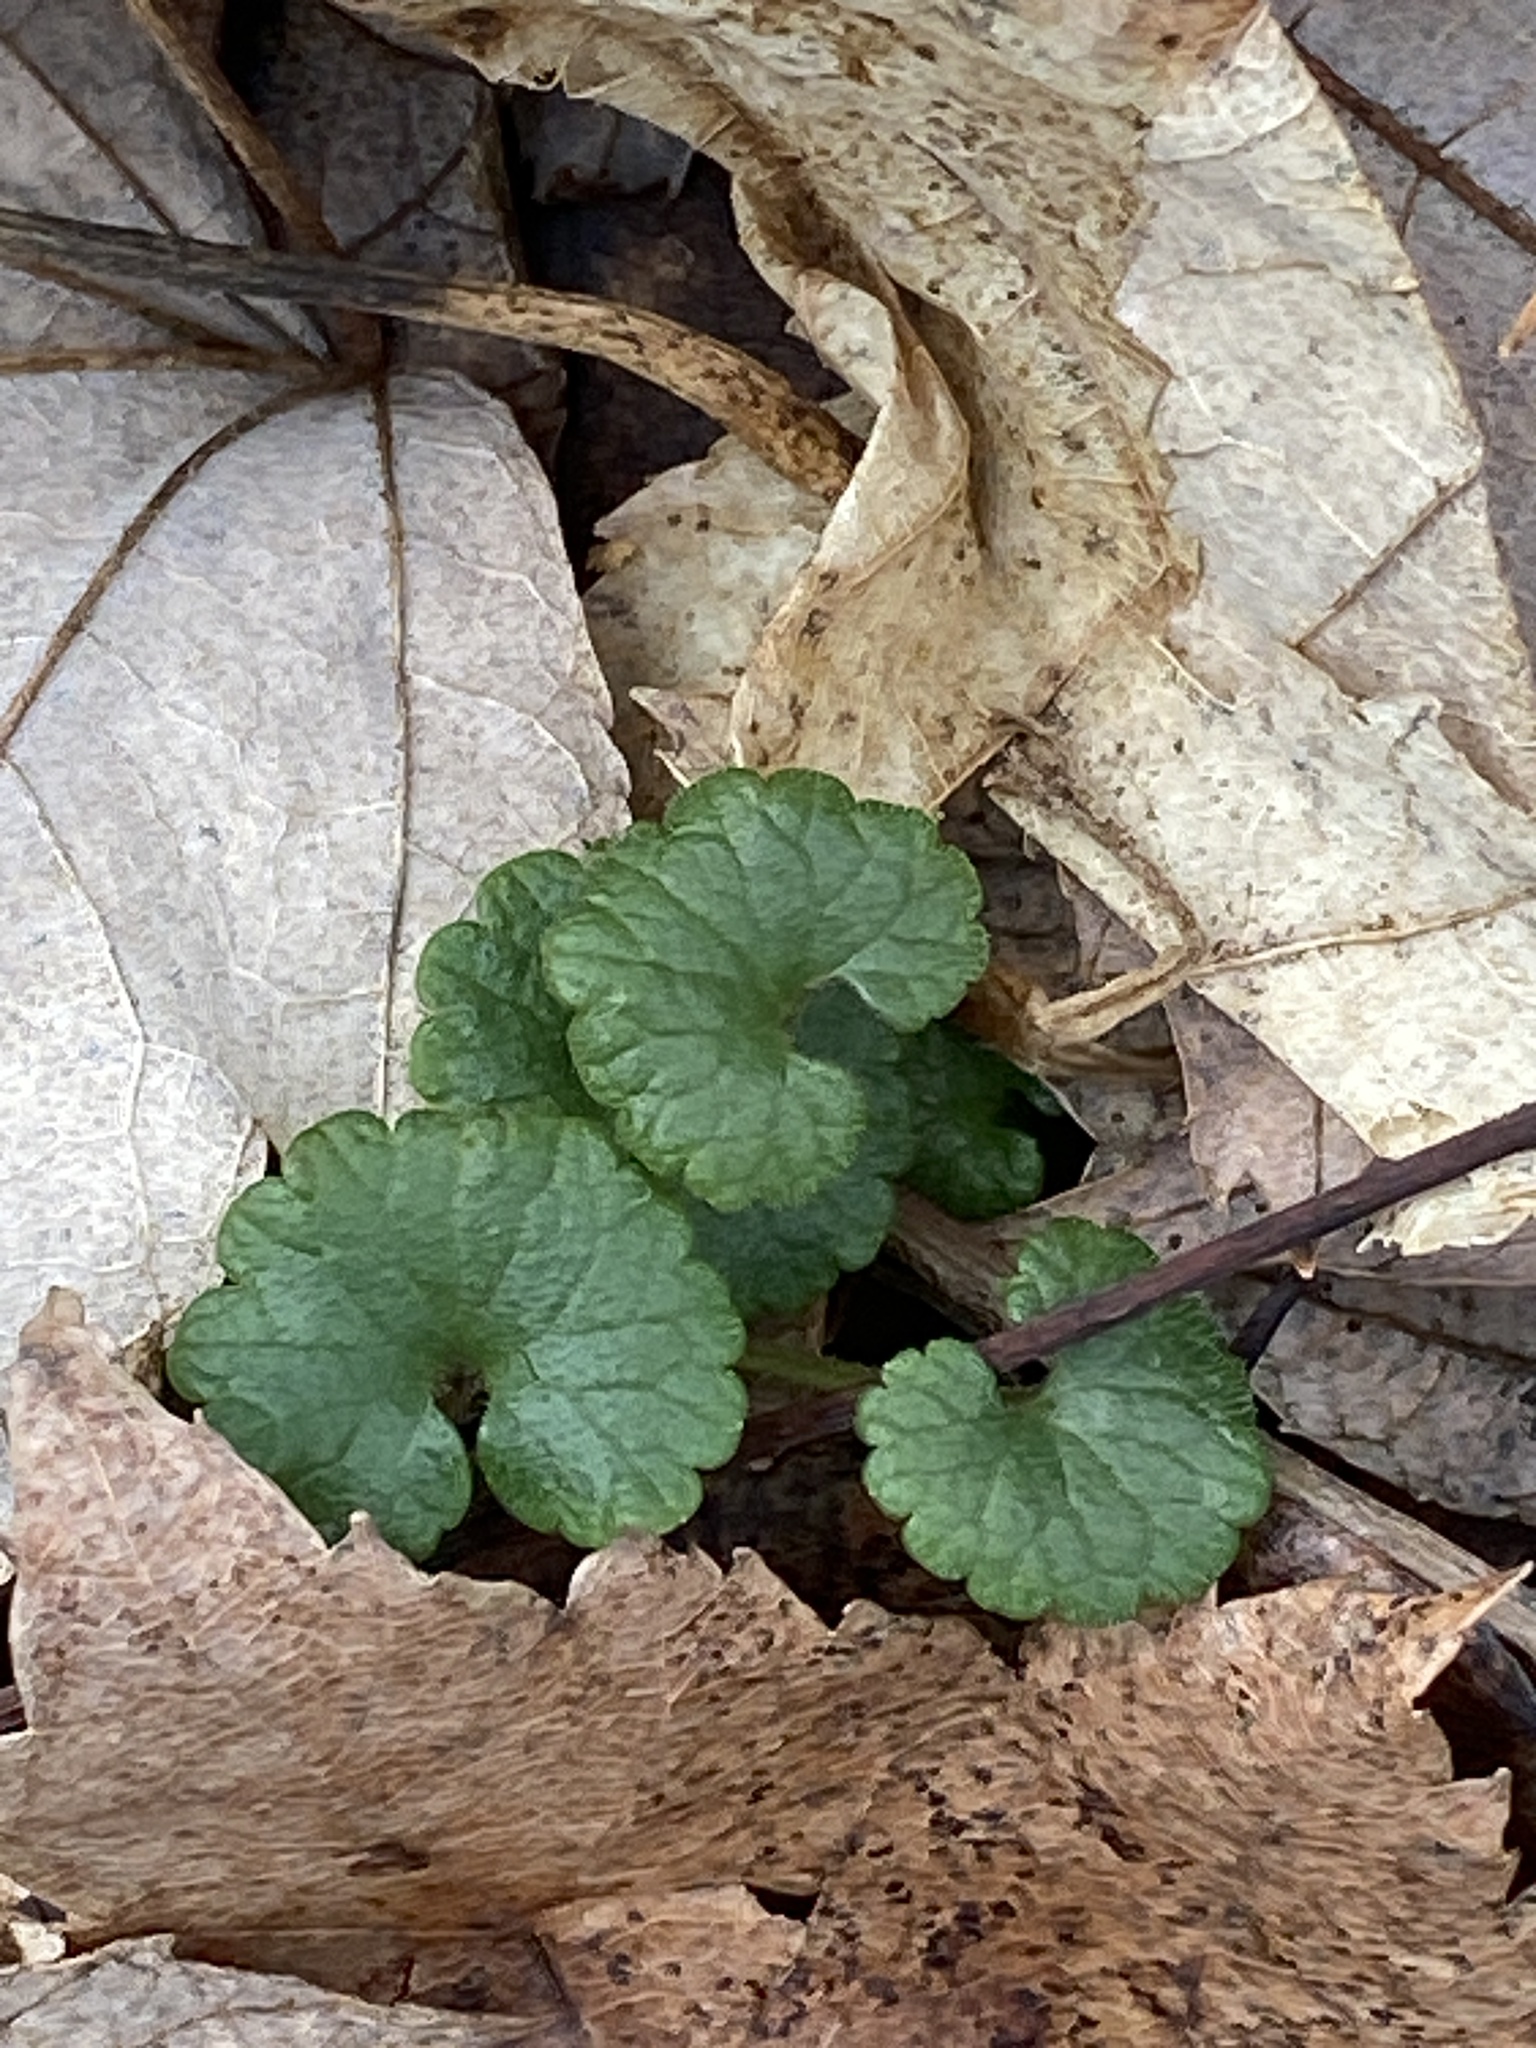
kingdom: Plantae
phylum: Tracheophyta
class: Magnoliopsida
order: Lamiales
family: Lamiaceae
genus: Glechoma
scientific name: Glechoma hederacea
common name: Ground ivy
